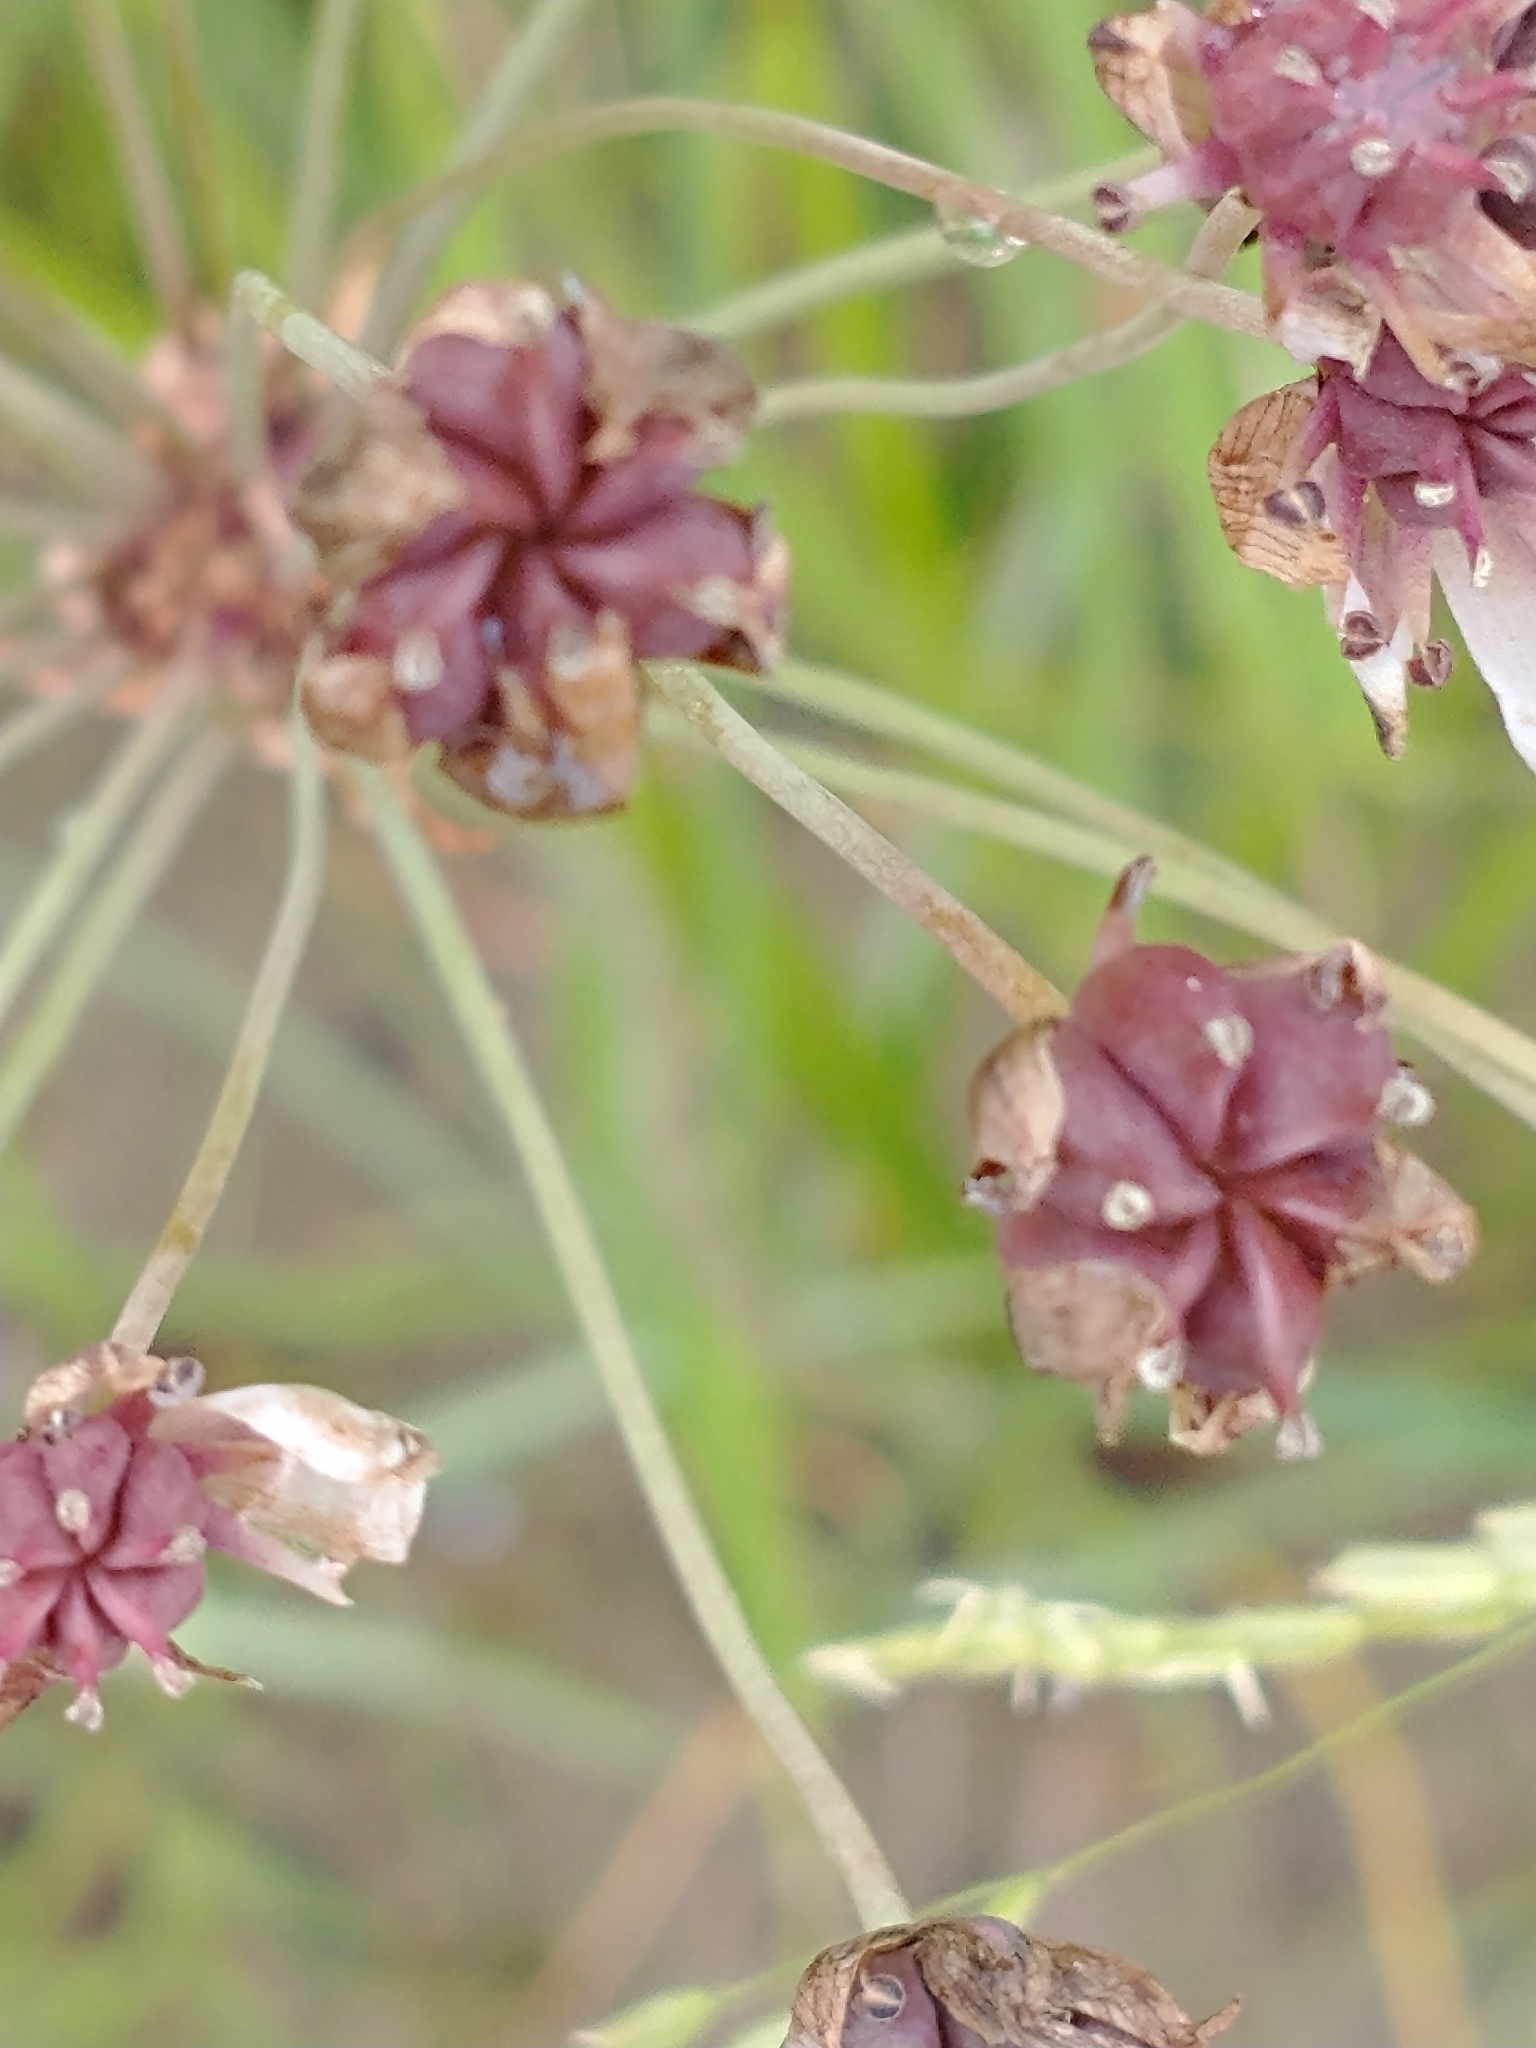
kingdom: Plantae
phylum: Tracheophyta
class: Liliopsida
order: Alismatales
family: Butomaceae
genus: Butomus
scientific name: Butomus umbellatus
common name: Flowering-rush
